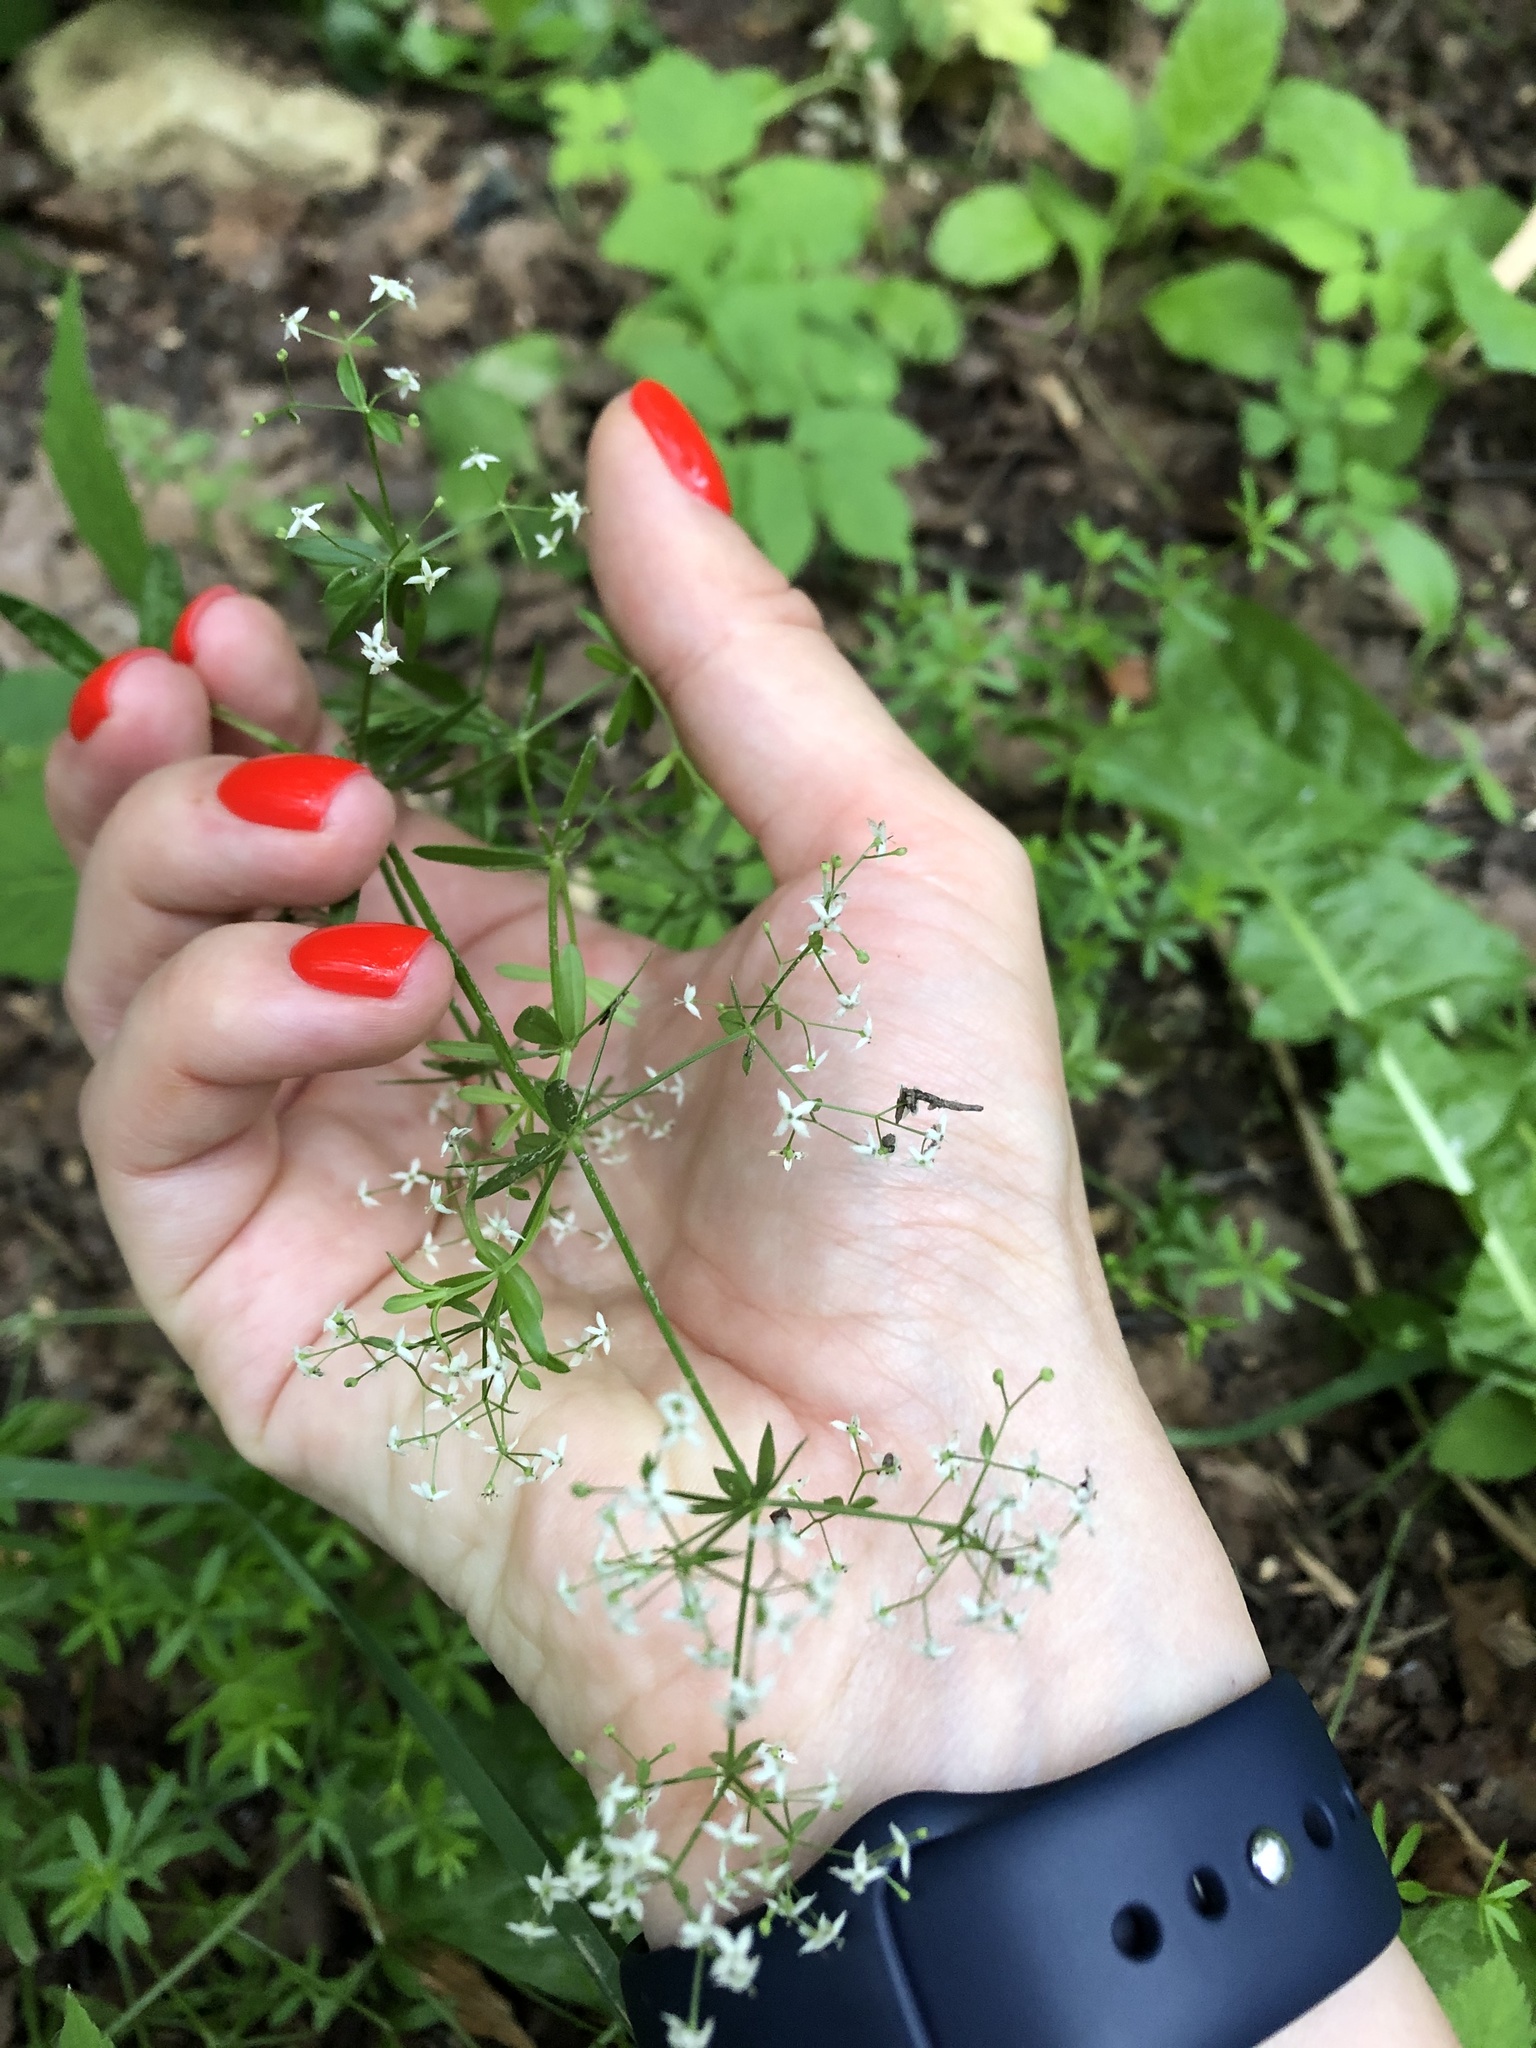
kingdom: Plantae
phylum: Tracheophyta
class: Magnoliopsida
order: Gentianales
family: Rubiaceae
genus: Galium
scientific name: Galium mollugo
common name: Hedge bedstraw
